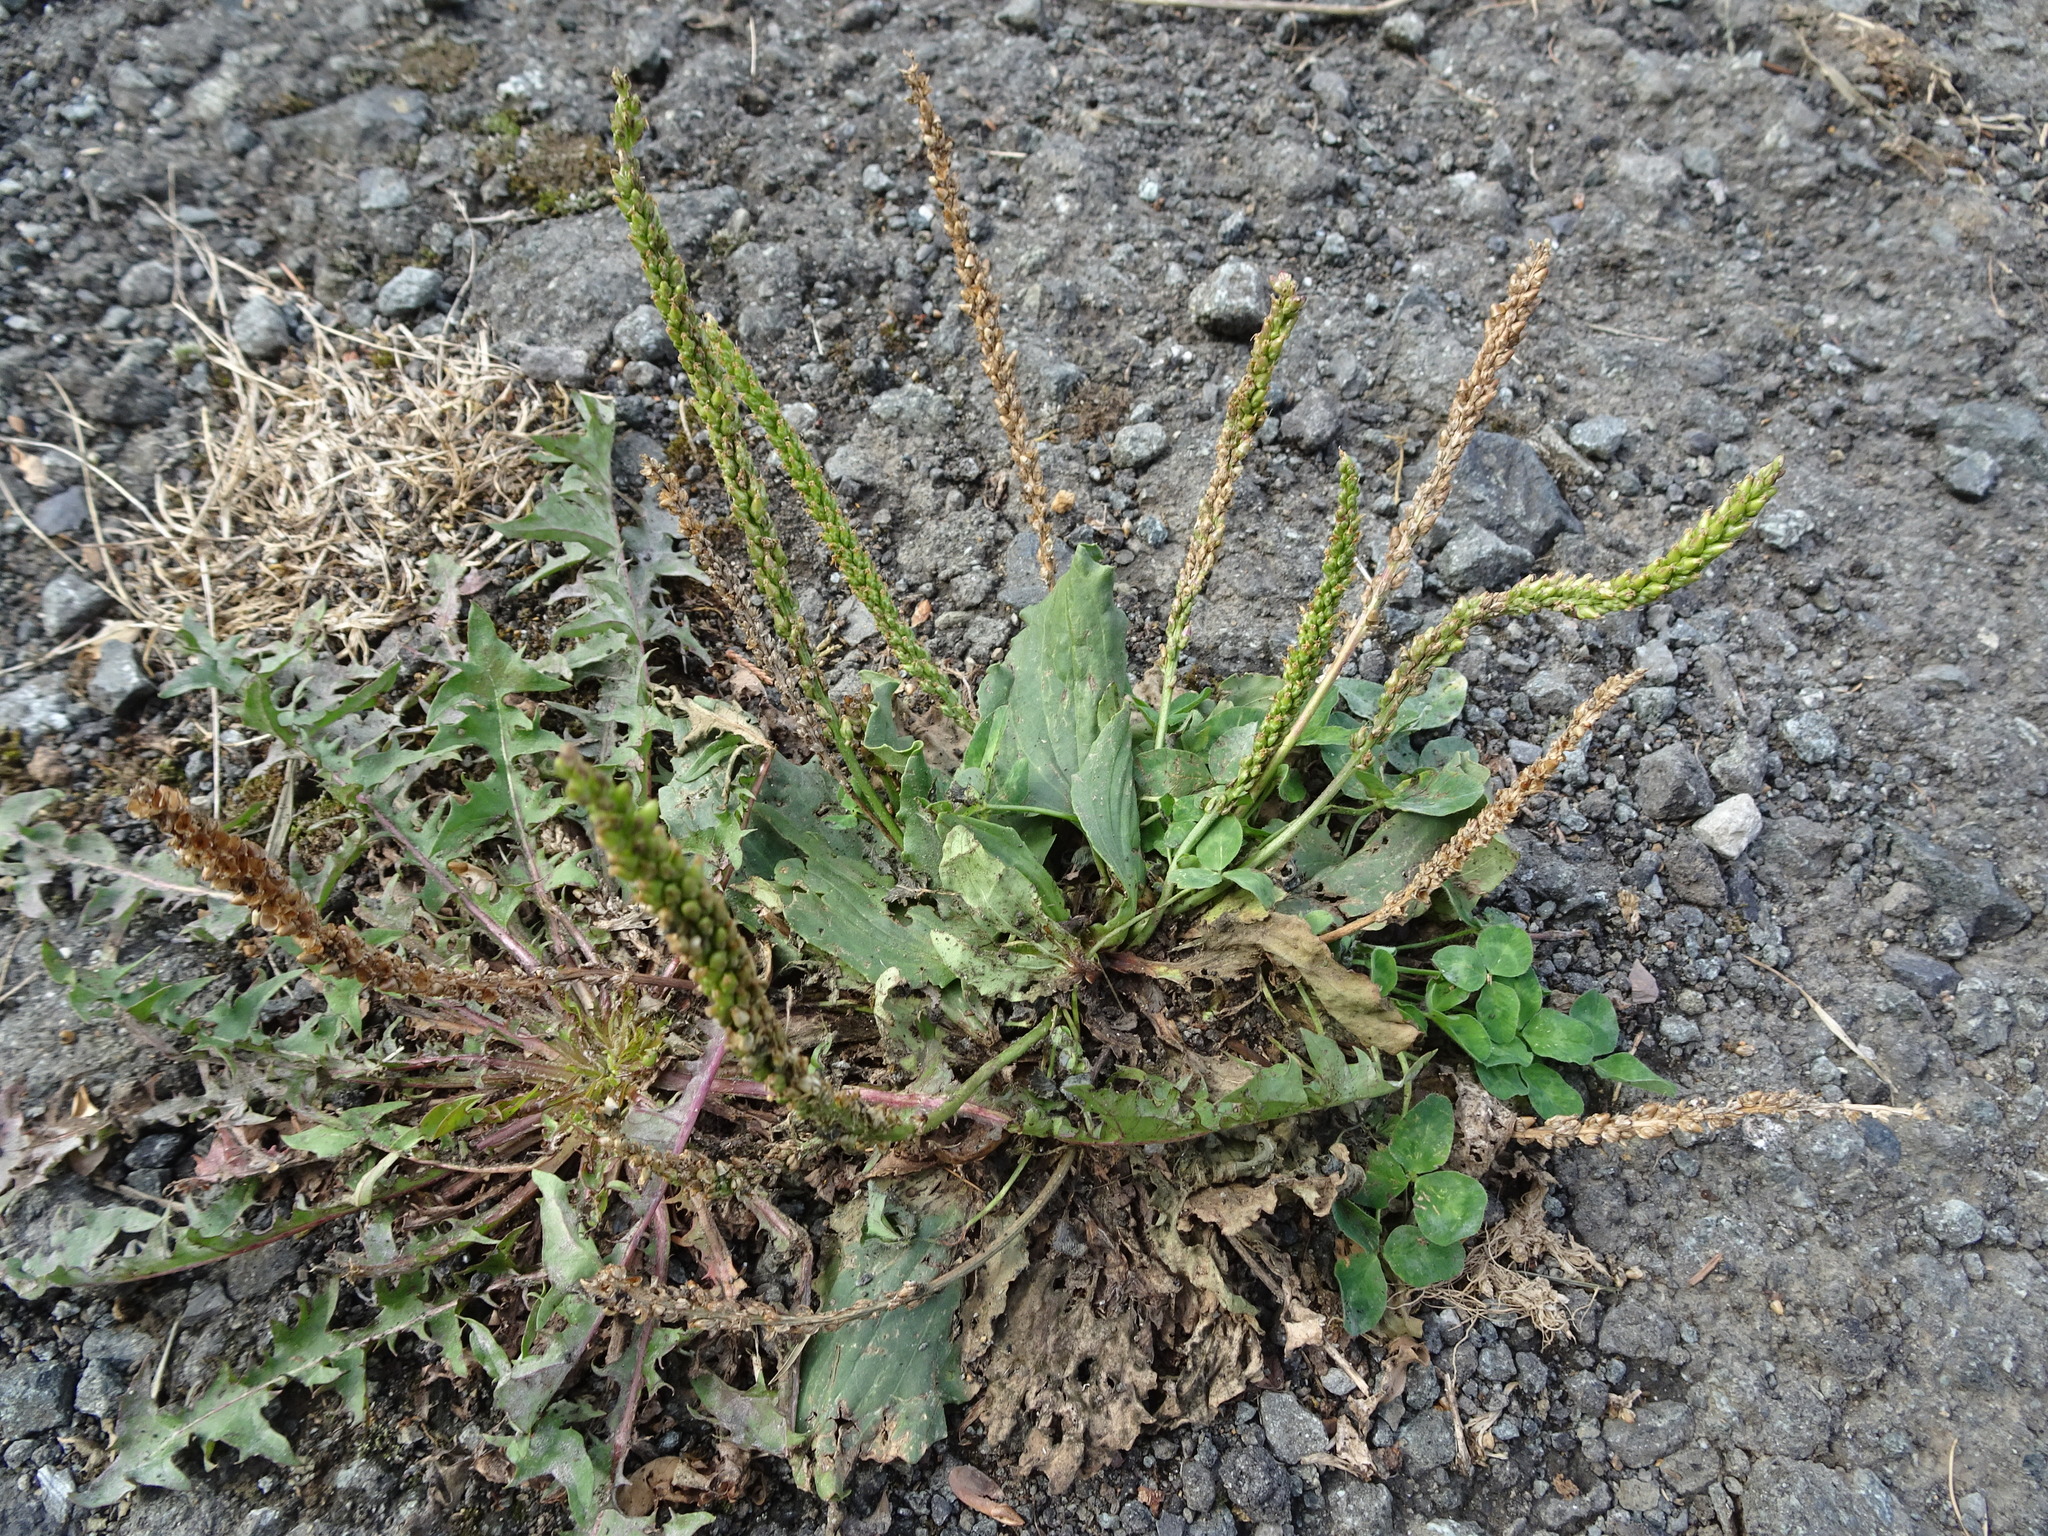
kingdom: Plantae
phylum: Tracheophyta
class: Magnoliopsida
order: Lamiales
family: Plantaginaceae
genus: Plantago
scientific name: Plantago major
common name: Common plantain
